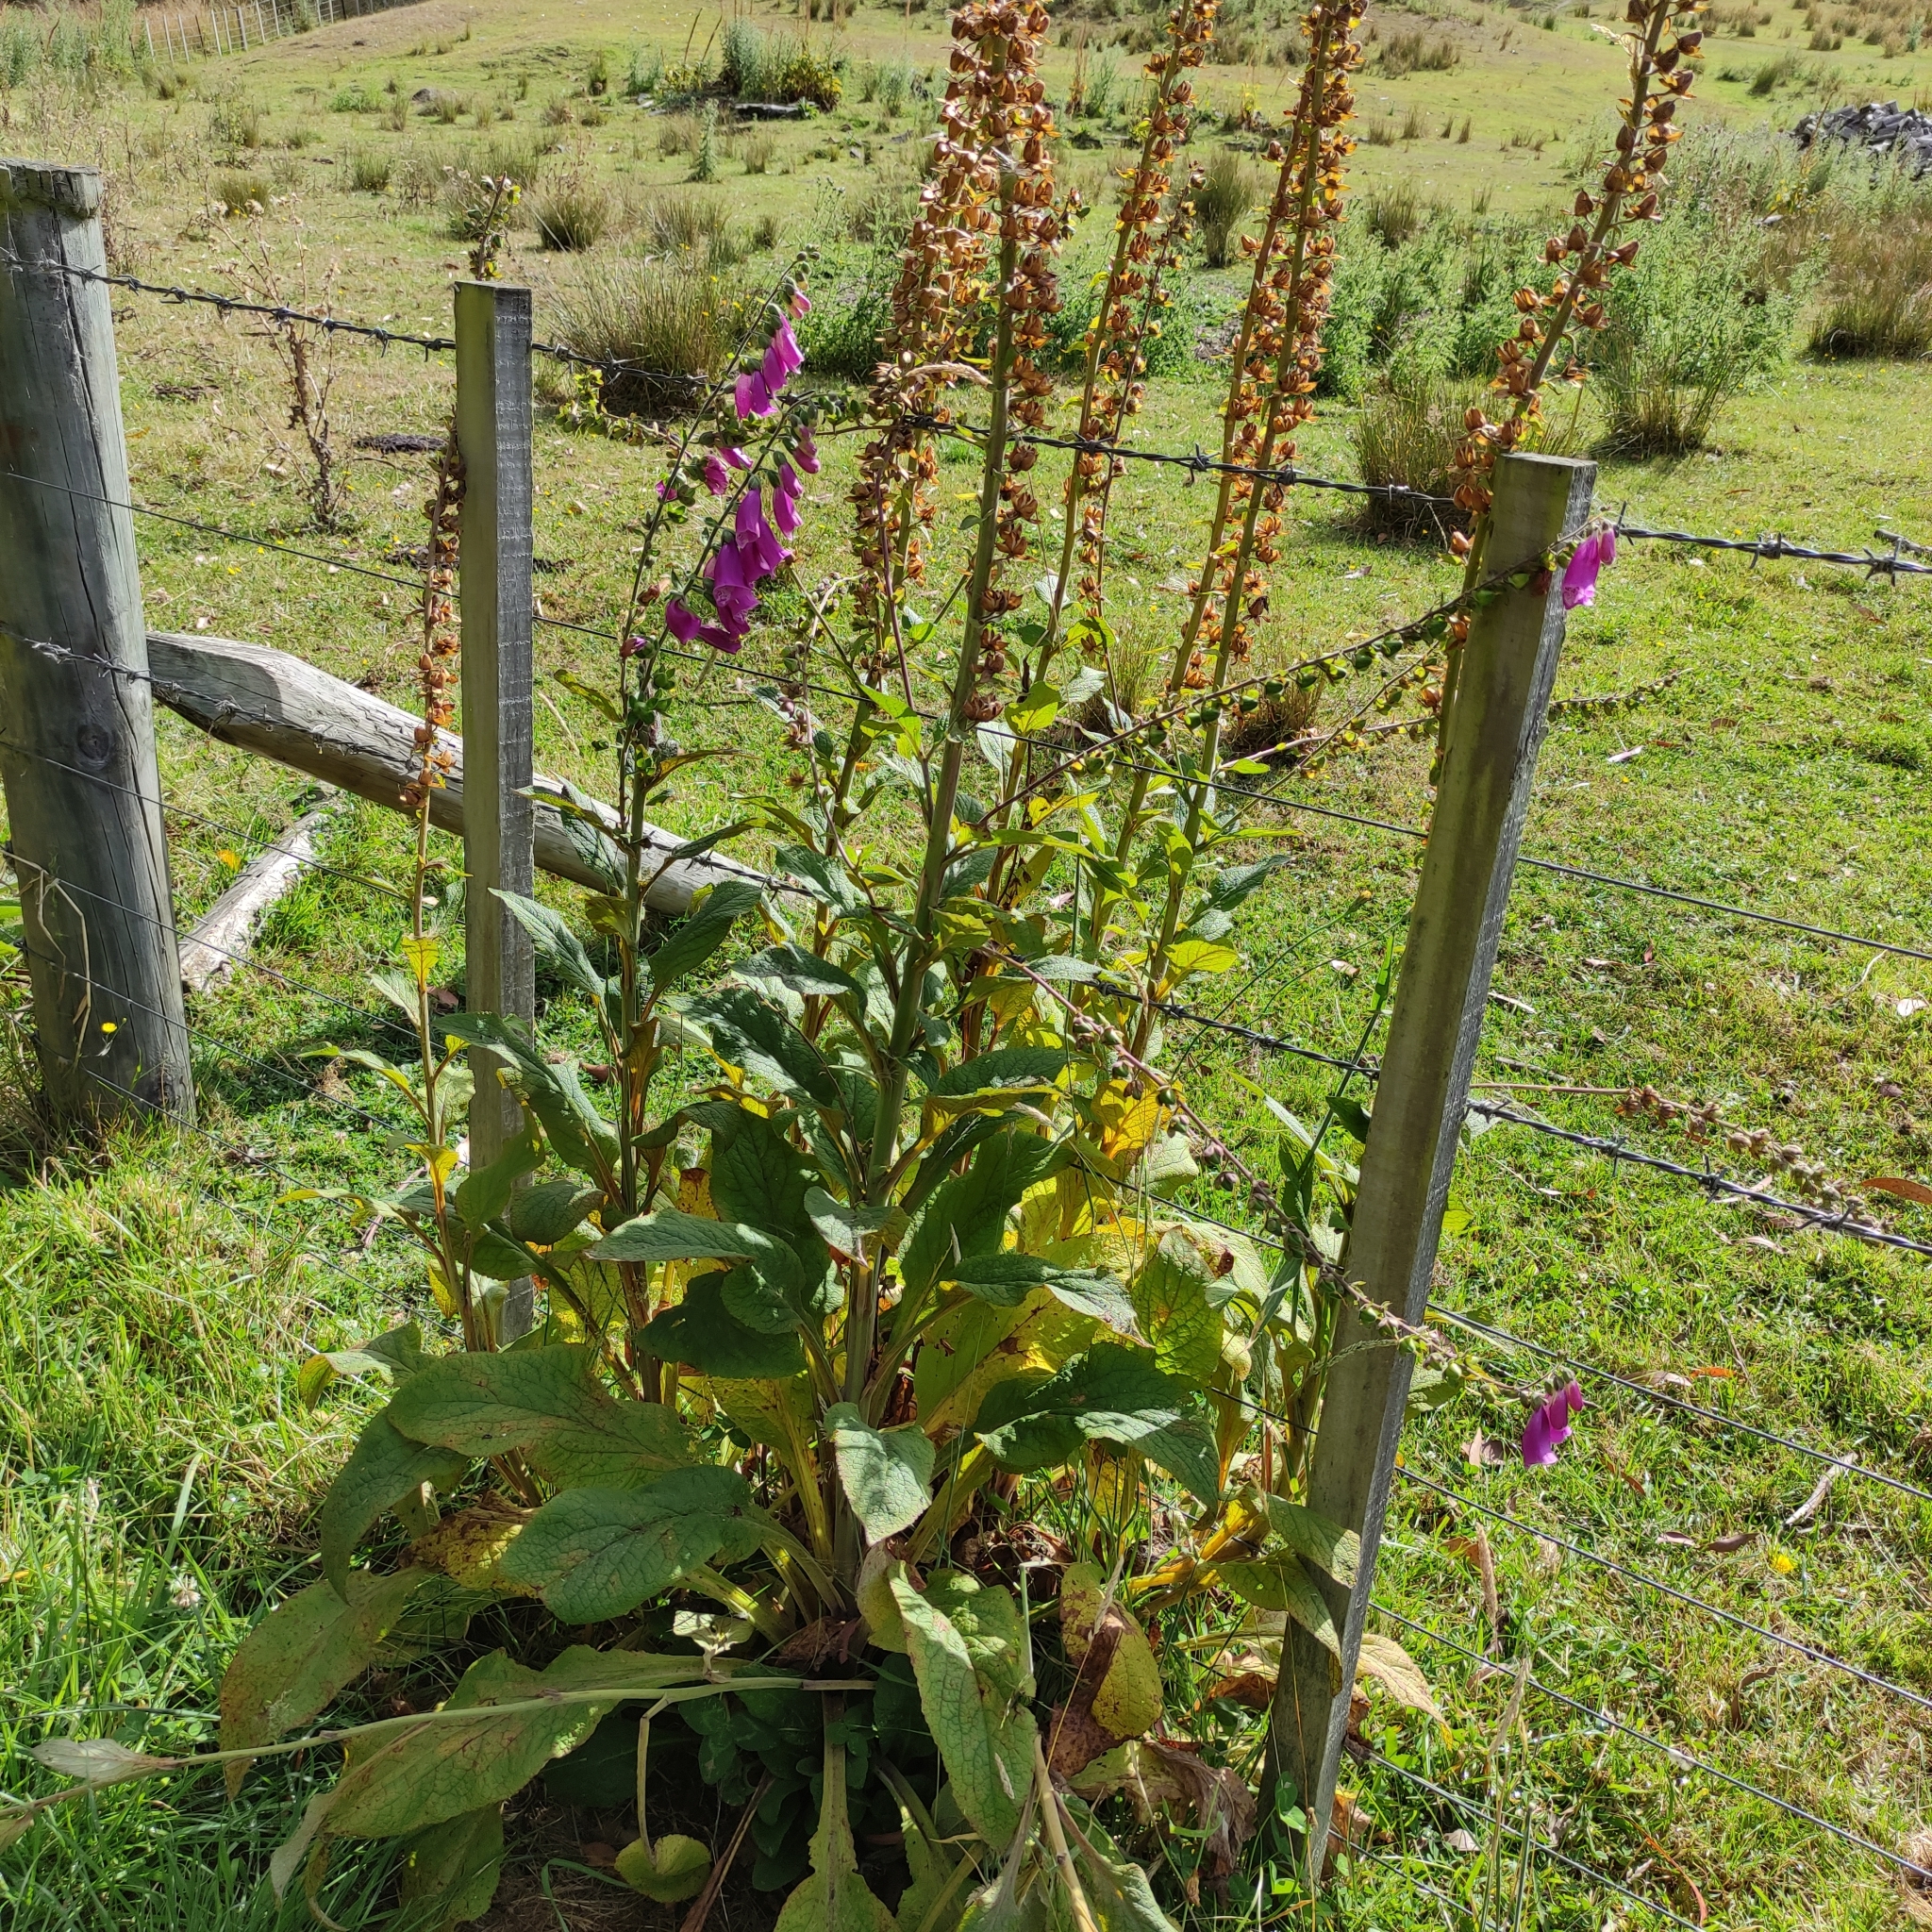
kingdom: Plantae
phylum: Tracheophyta
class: Magnoliopsida
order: Lamiales
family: Plantaginaceae
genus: Digitalis
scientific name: Digitalis purpurea
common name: Foxglove
